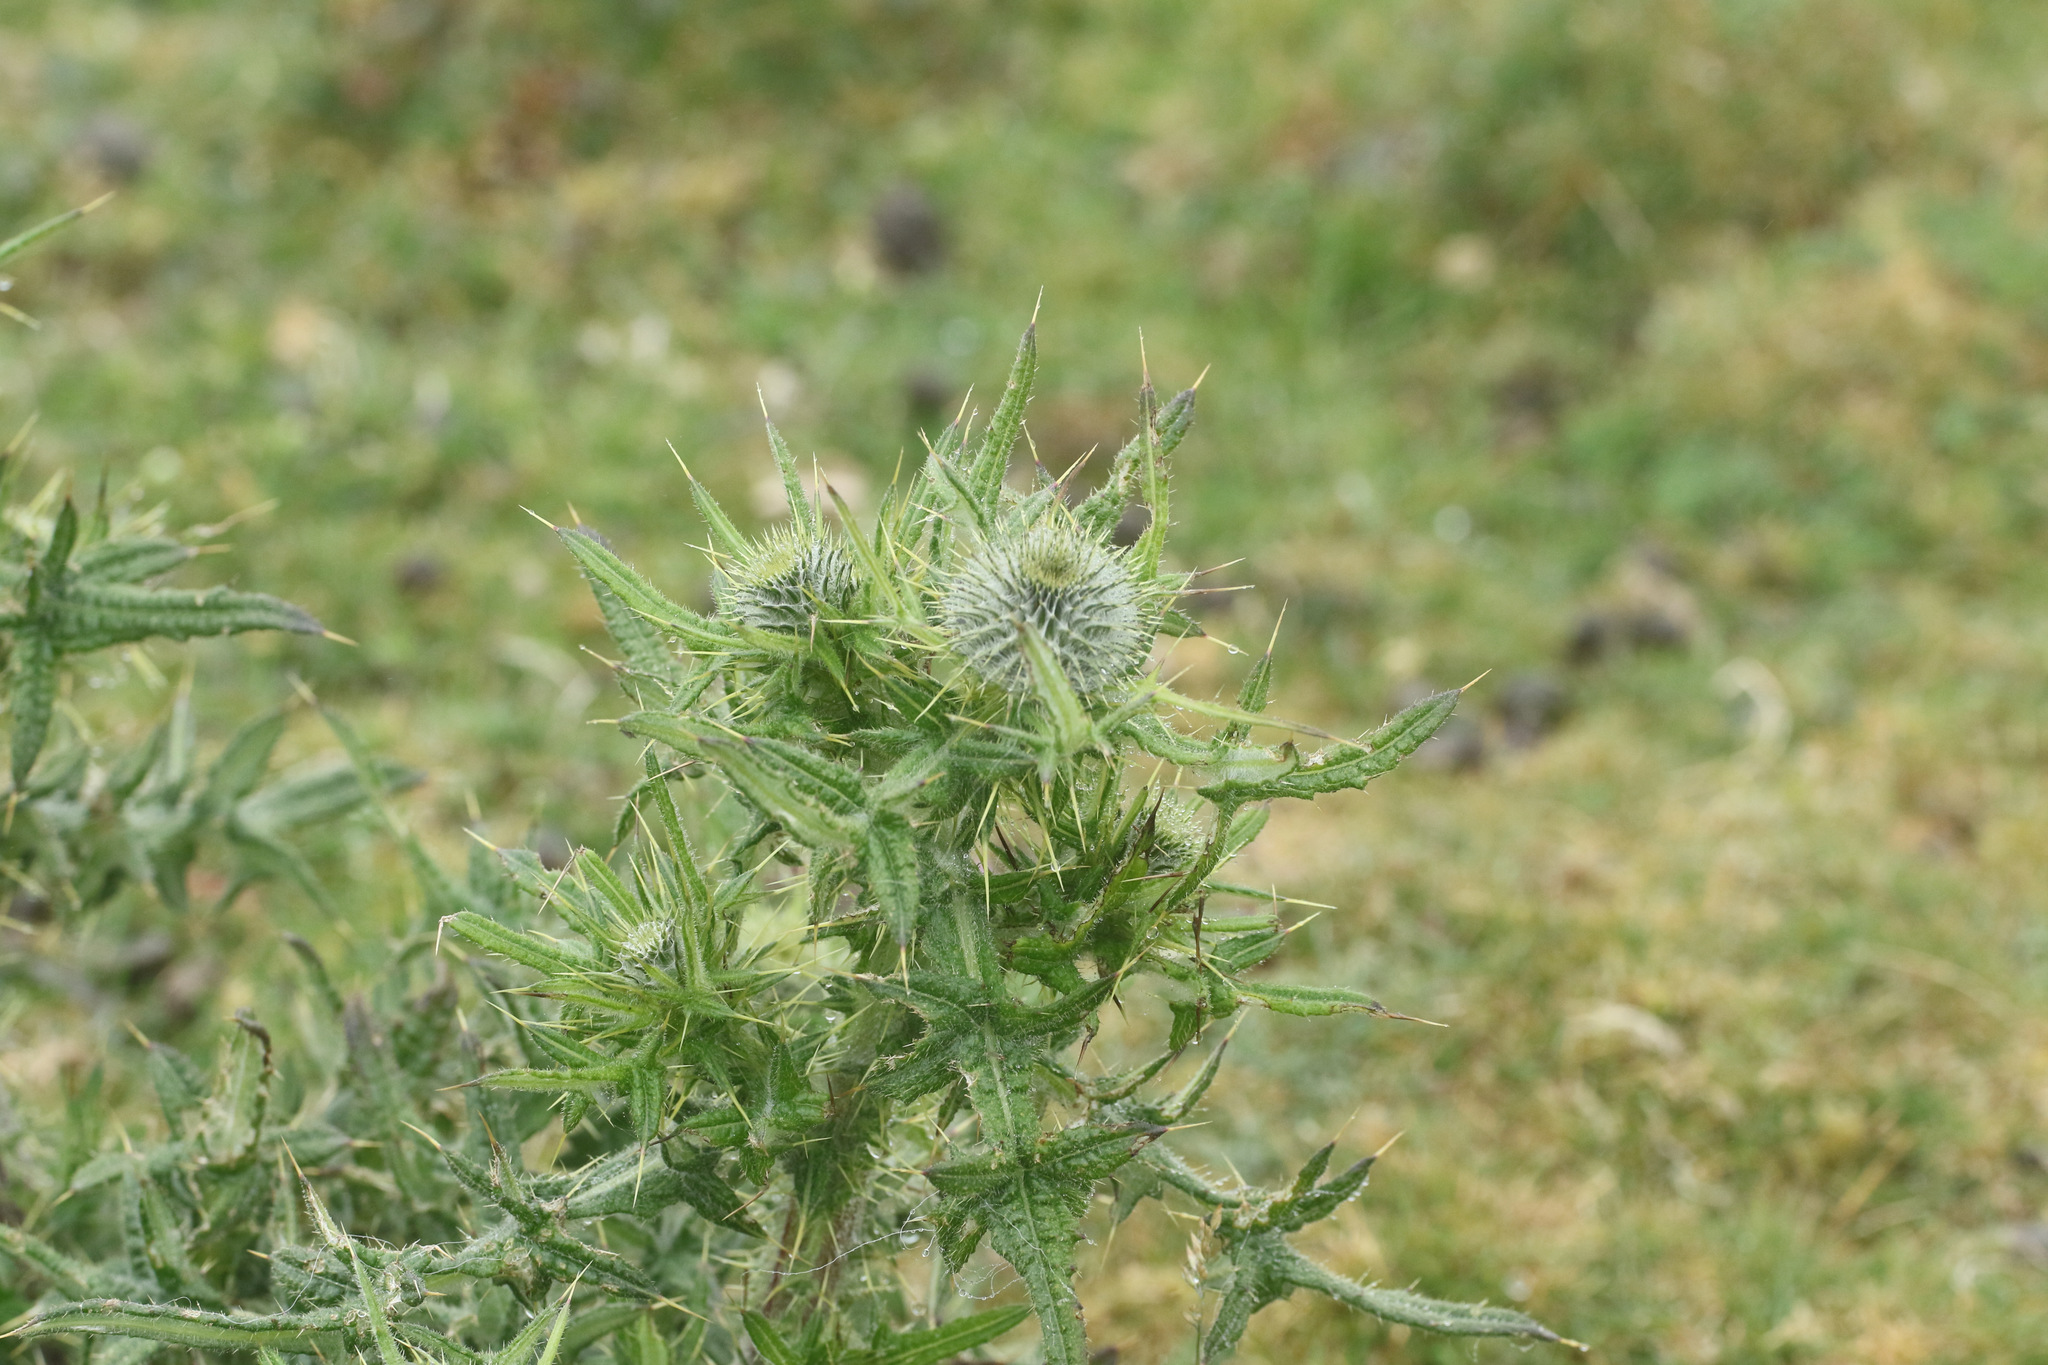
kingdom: Plantae
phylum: Tracheophyta
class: Magnoliopsida
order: Asterales
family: Asteraceae
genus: Cirsium
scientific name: Cirsium vulgare
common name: Bull thistle
